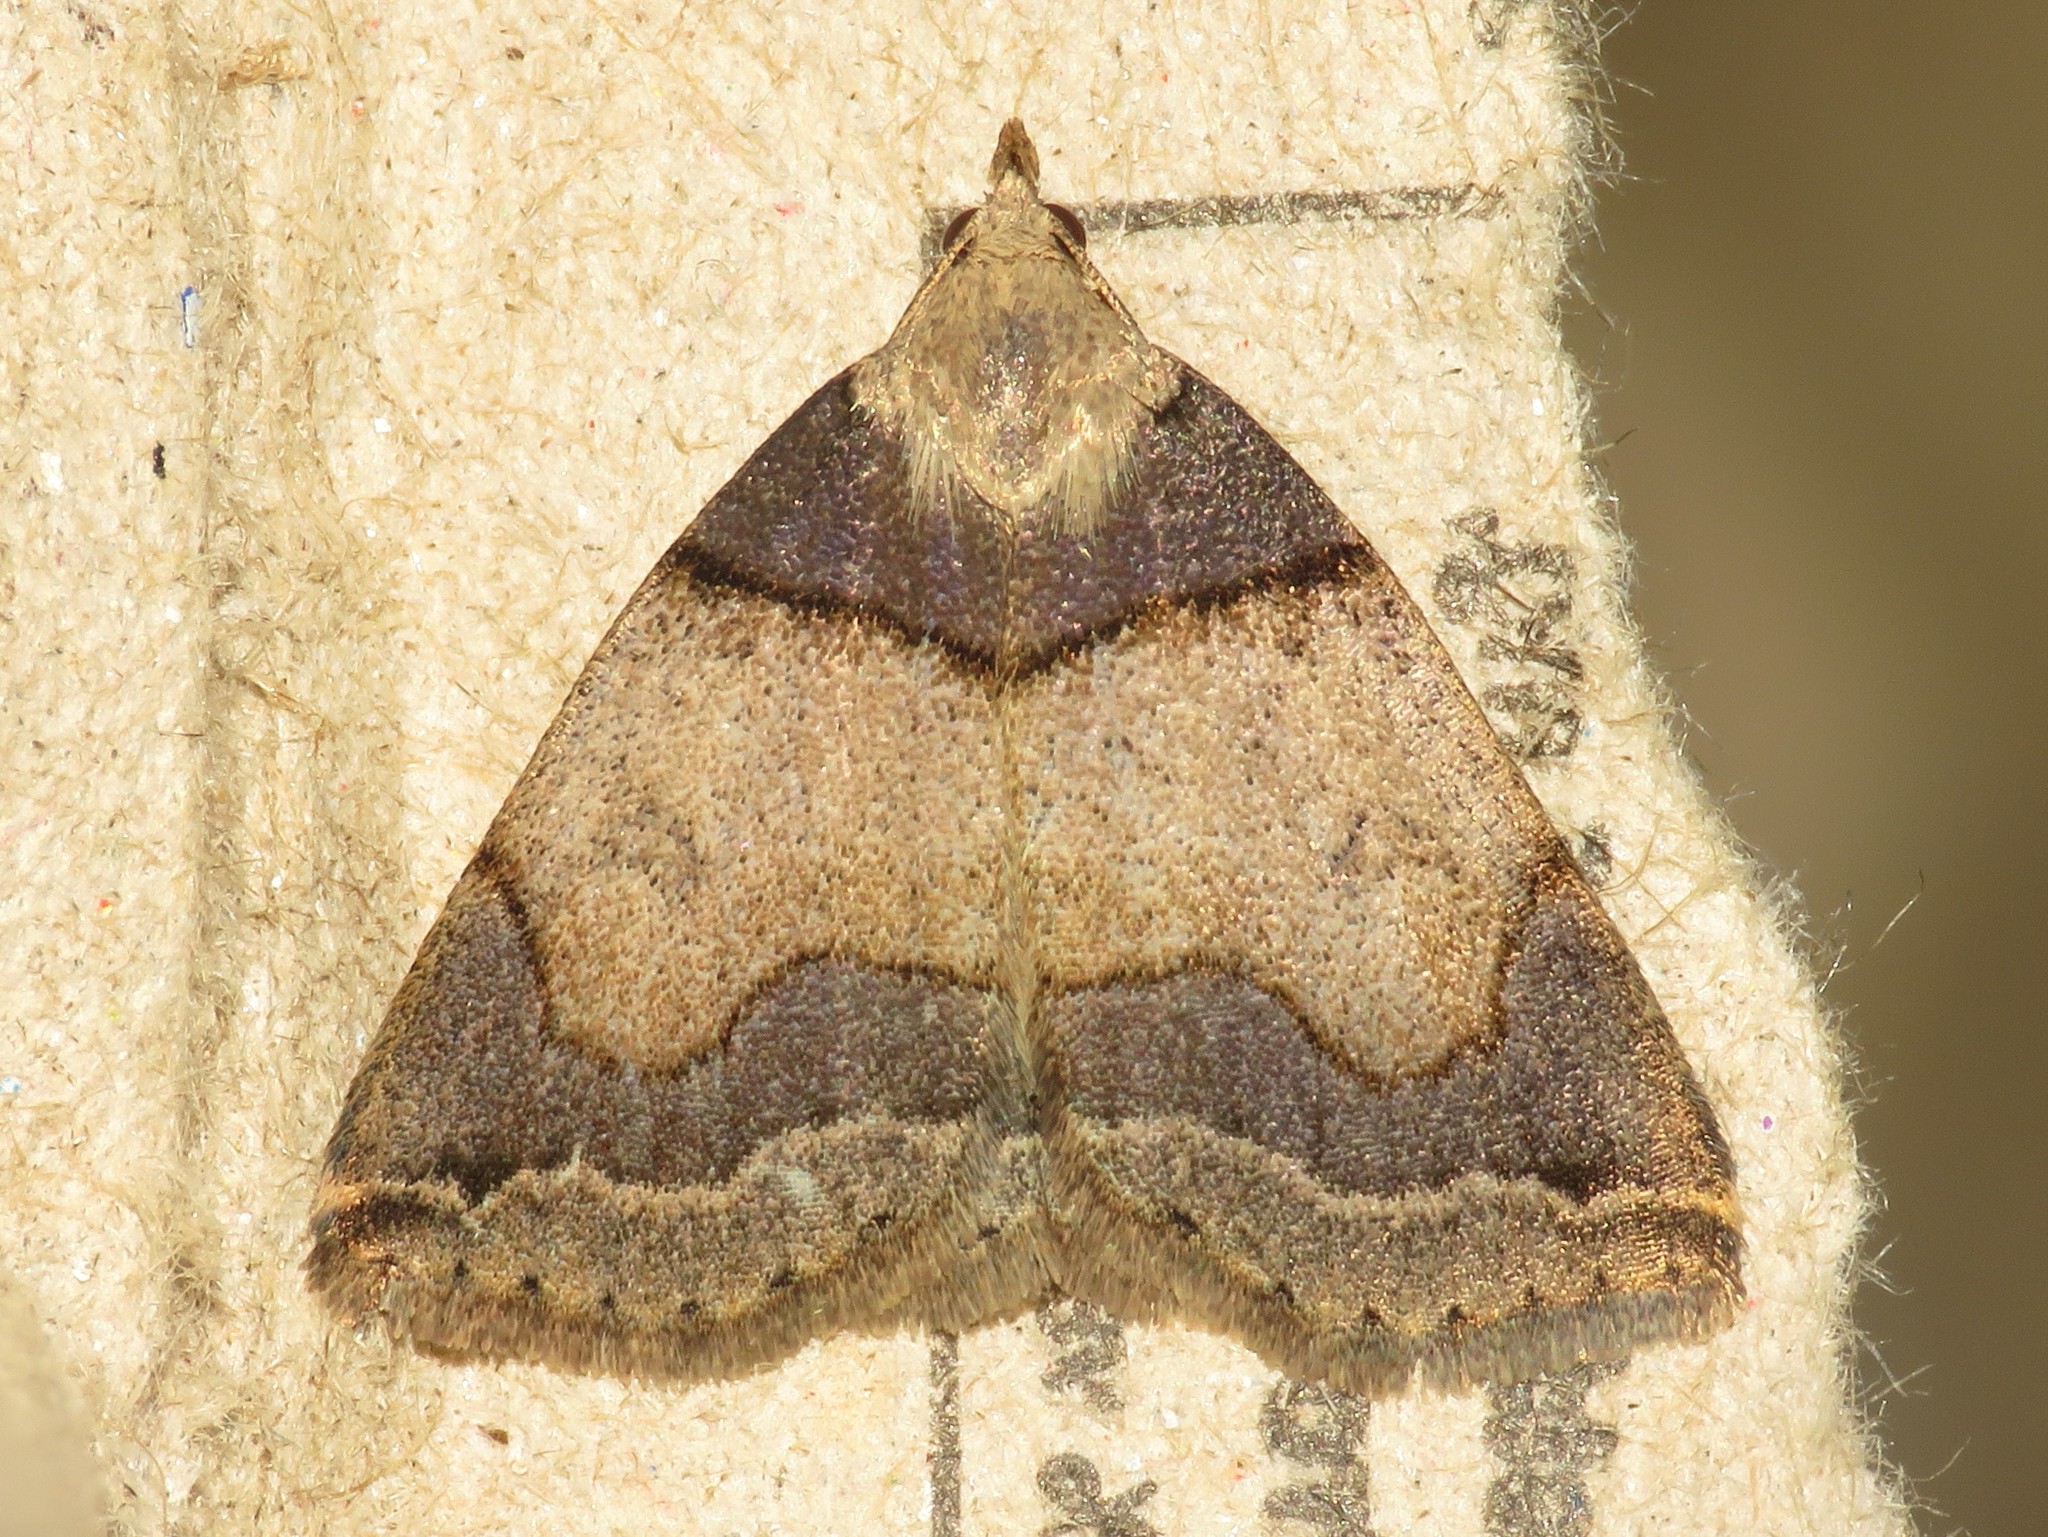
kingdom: Animalia
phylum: Arthropoda
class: Insecta
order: Lepidoptera
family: Erebidae
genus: Zanclognatha
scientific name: Zanclognatha laevigata
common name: Variable fan-foot
